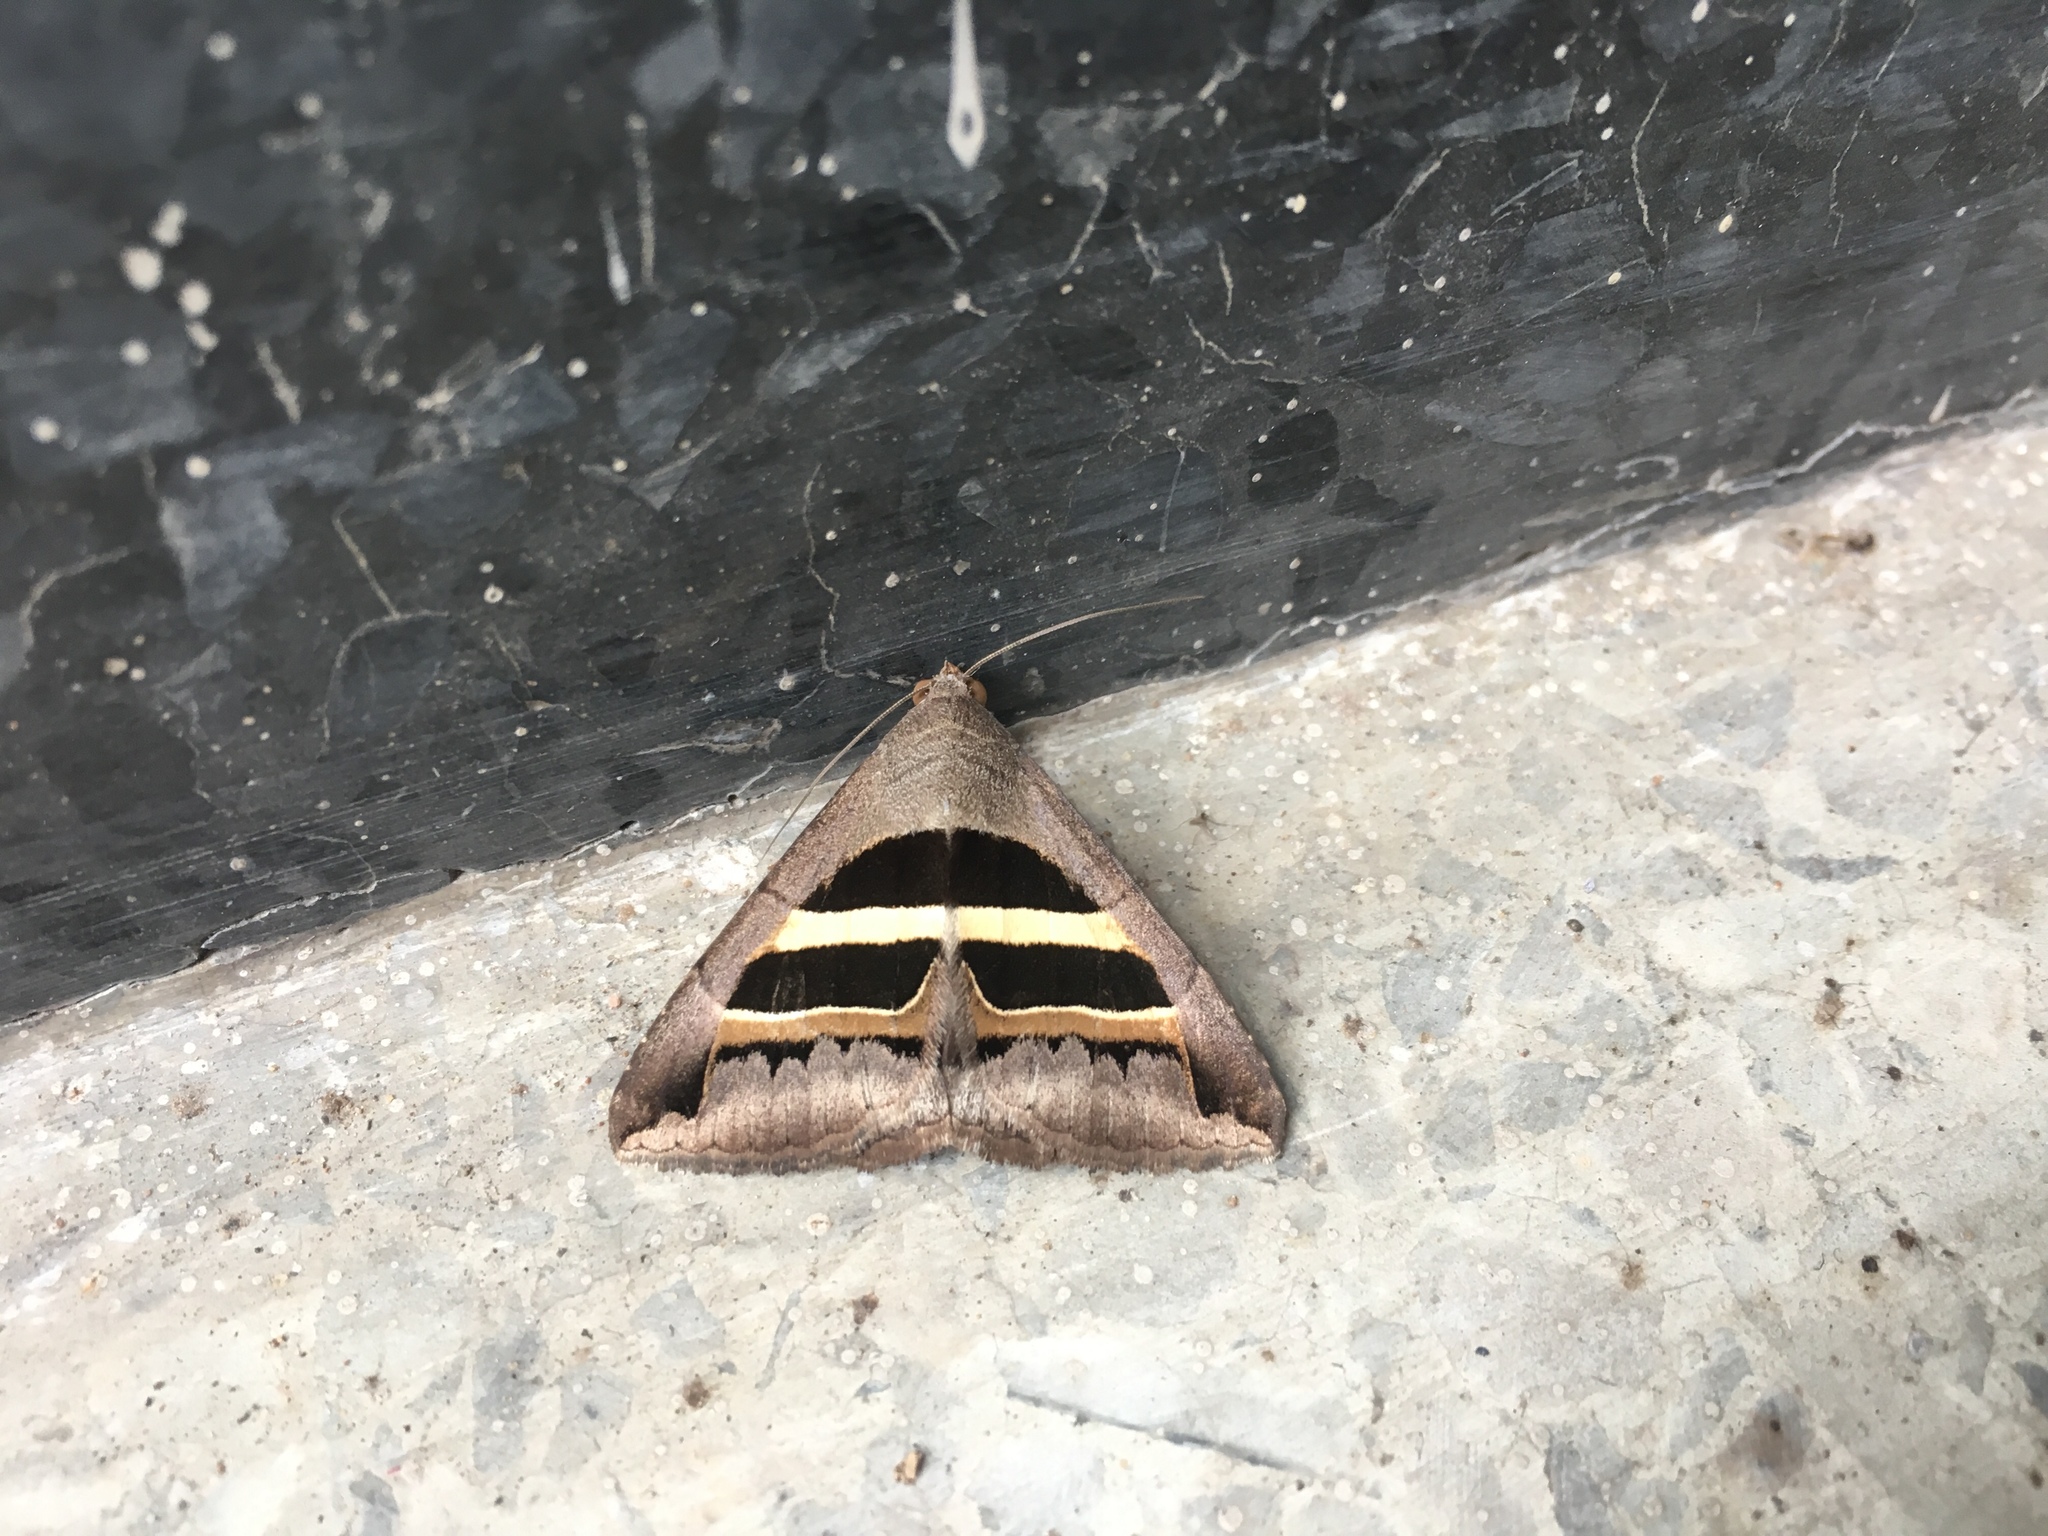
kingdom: Animalia
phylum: Arthropoda
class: Insecta
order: Lepidoptera
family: Erebidae
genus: Grammodes
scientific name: Grammodes geometrica
